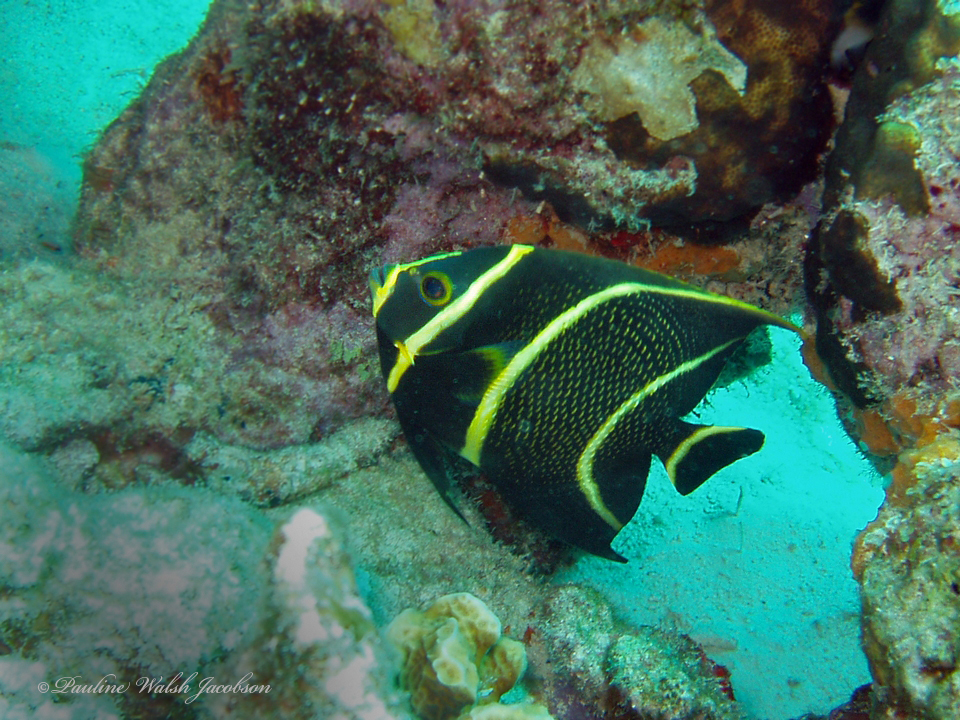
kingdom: Animalia
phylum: Chordata
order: Perciformes
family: Pomacanthidae
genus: Pomacanthus
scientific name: Pomacanthus paru
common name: French angelfish
